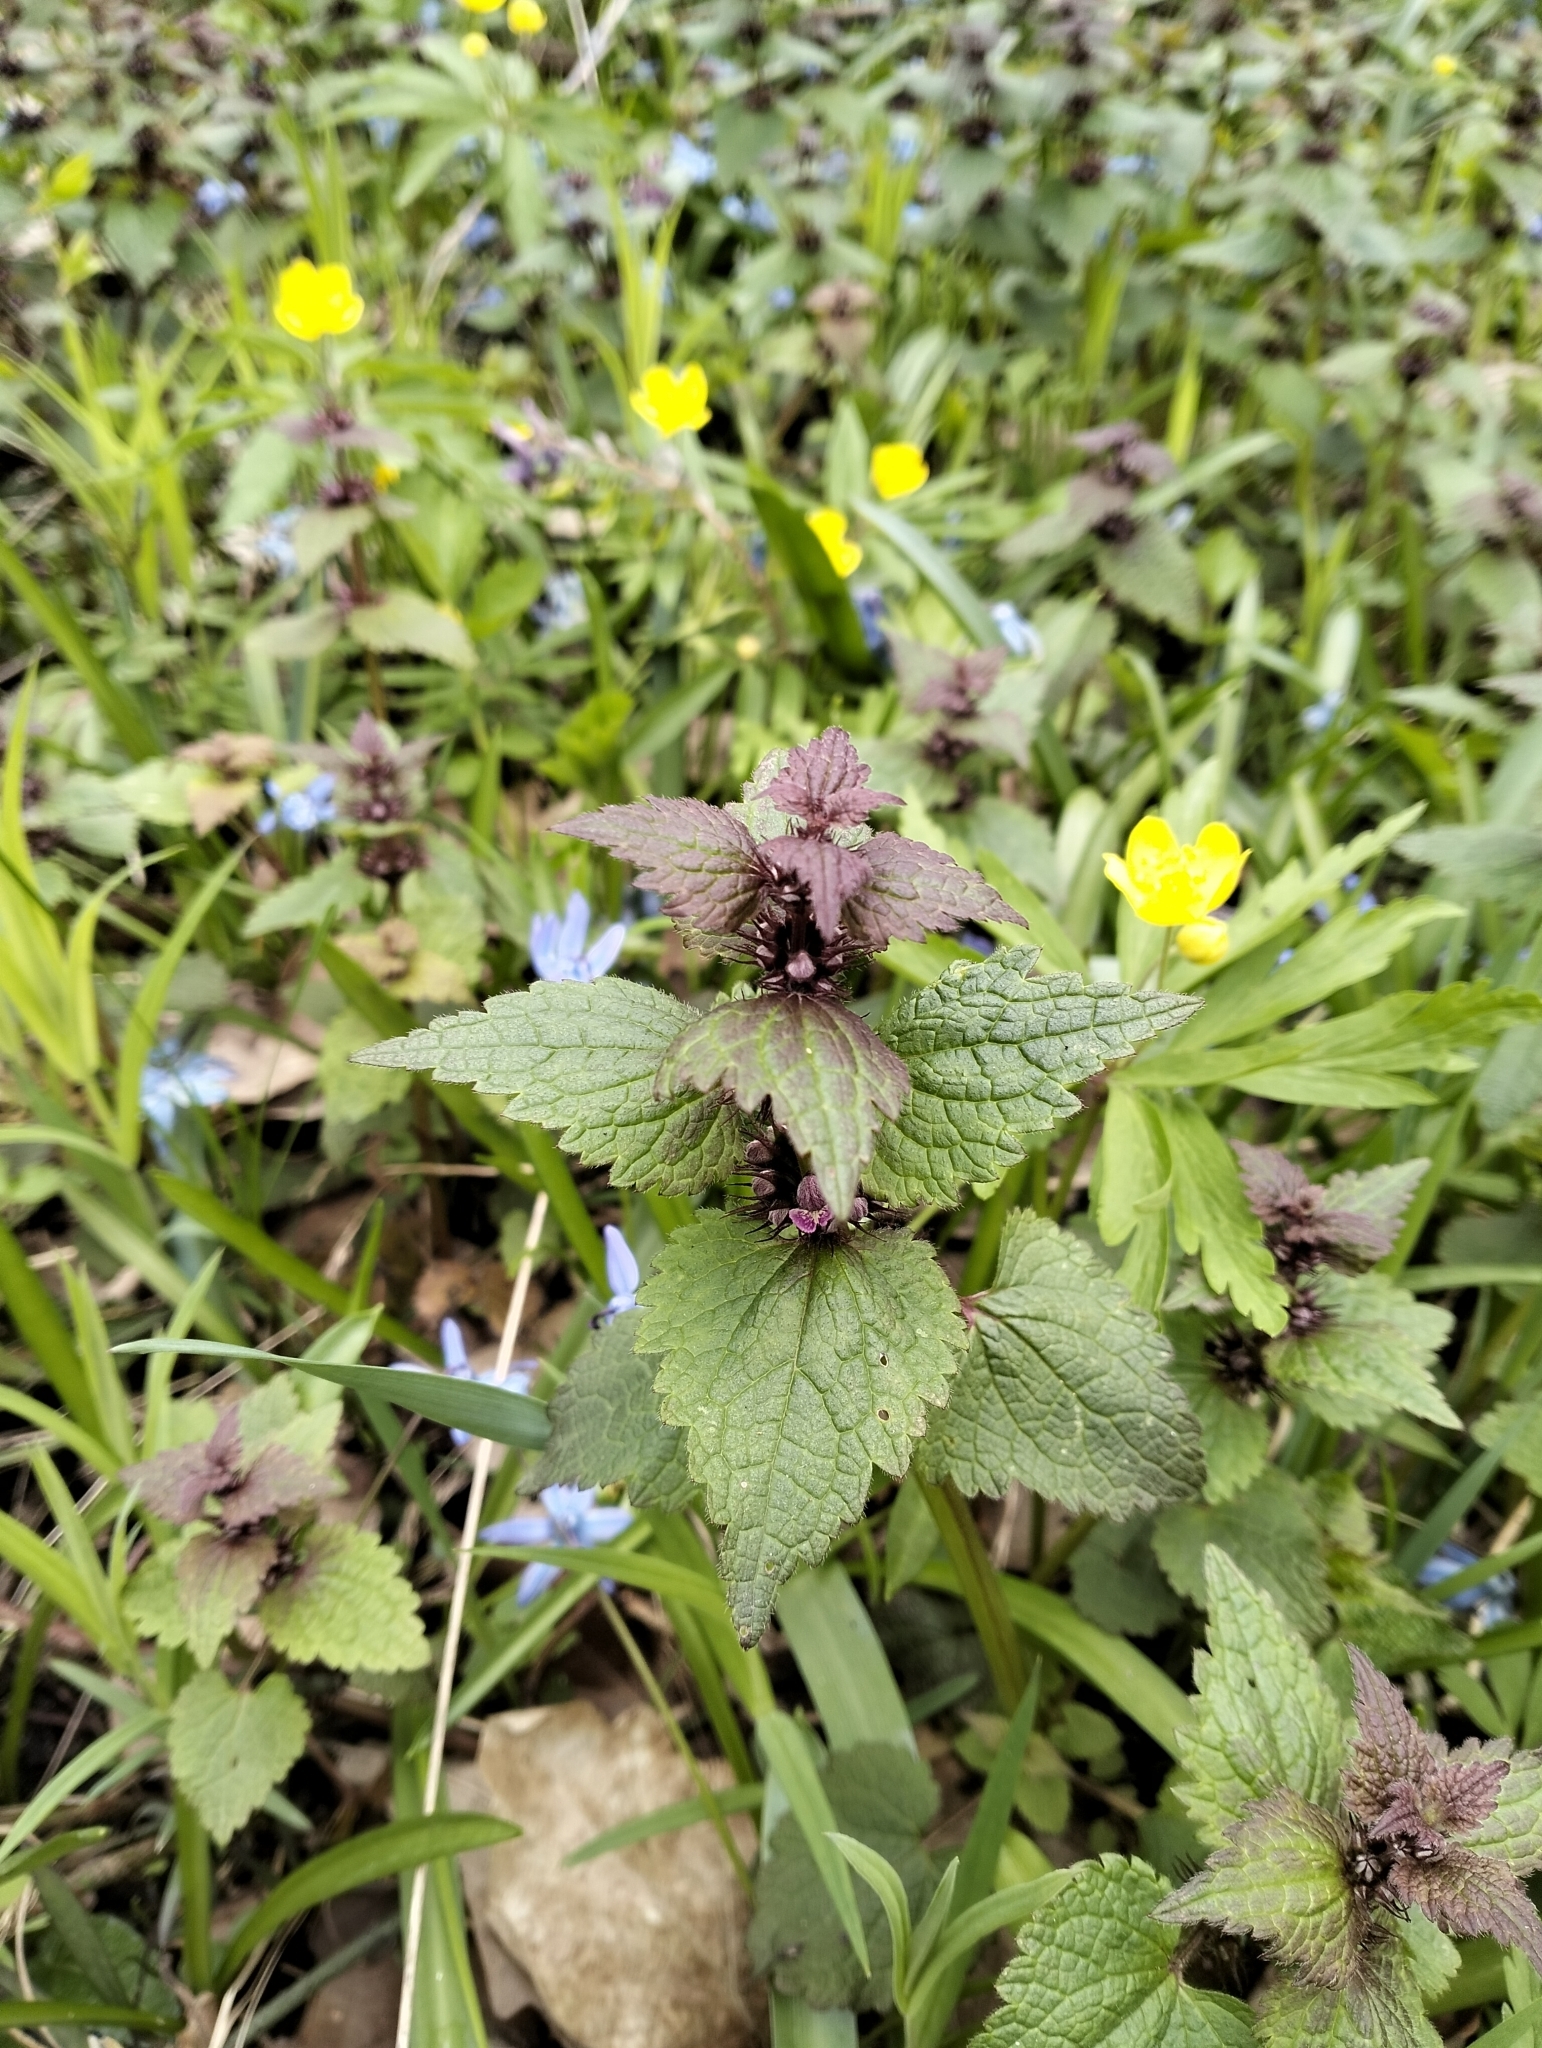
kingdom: Plantae
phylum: Tracheophyta
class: Magnoliopsida
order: Lamiales
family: Lamiaceae
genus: Lamium
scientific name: Lamium maculatum
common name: Spotted dead-nettle
